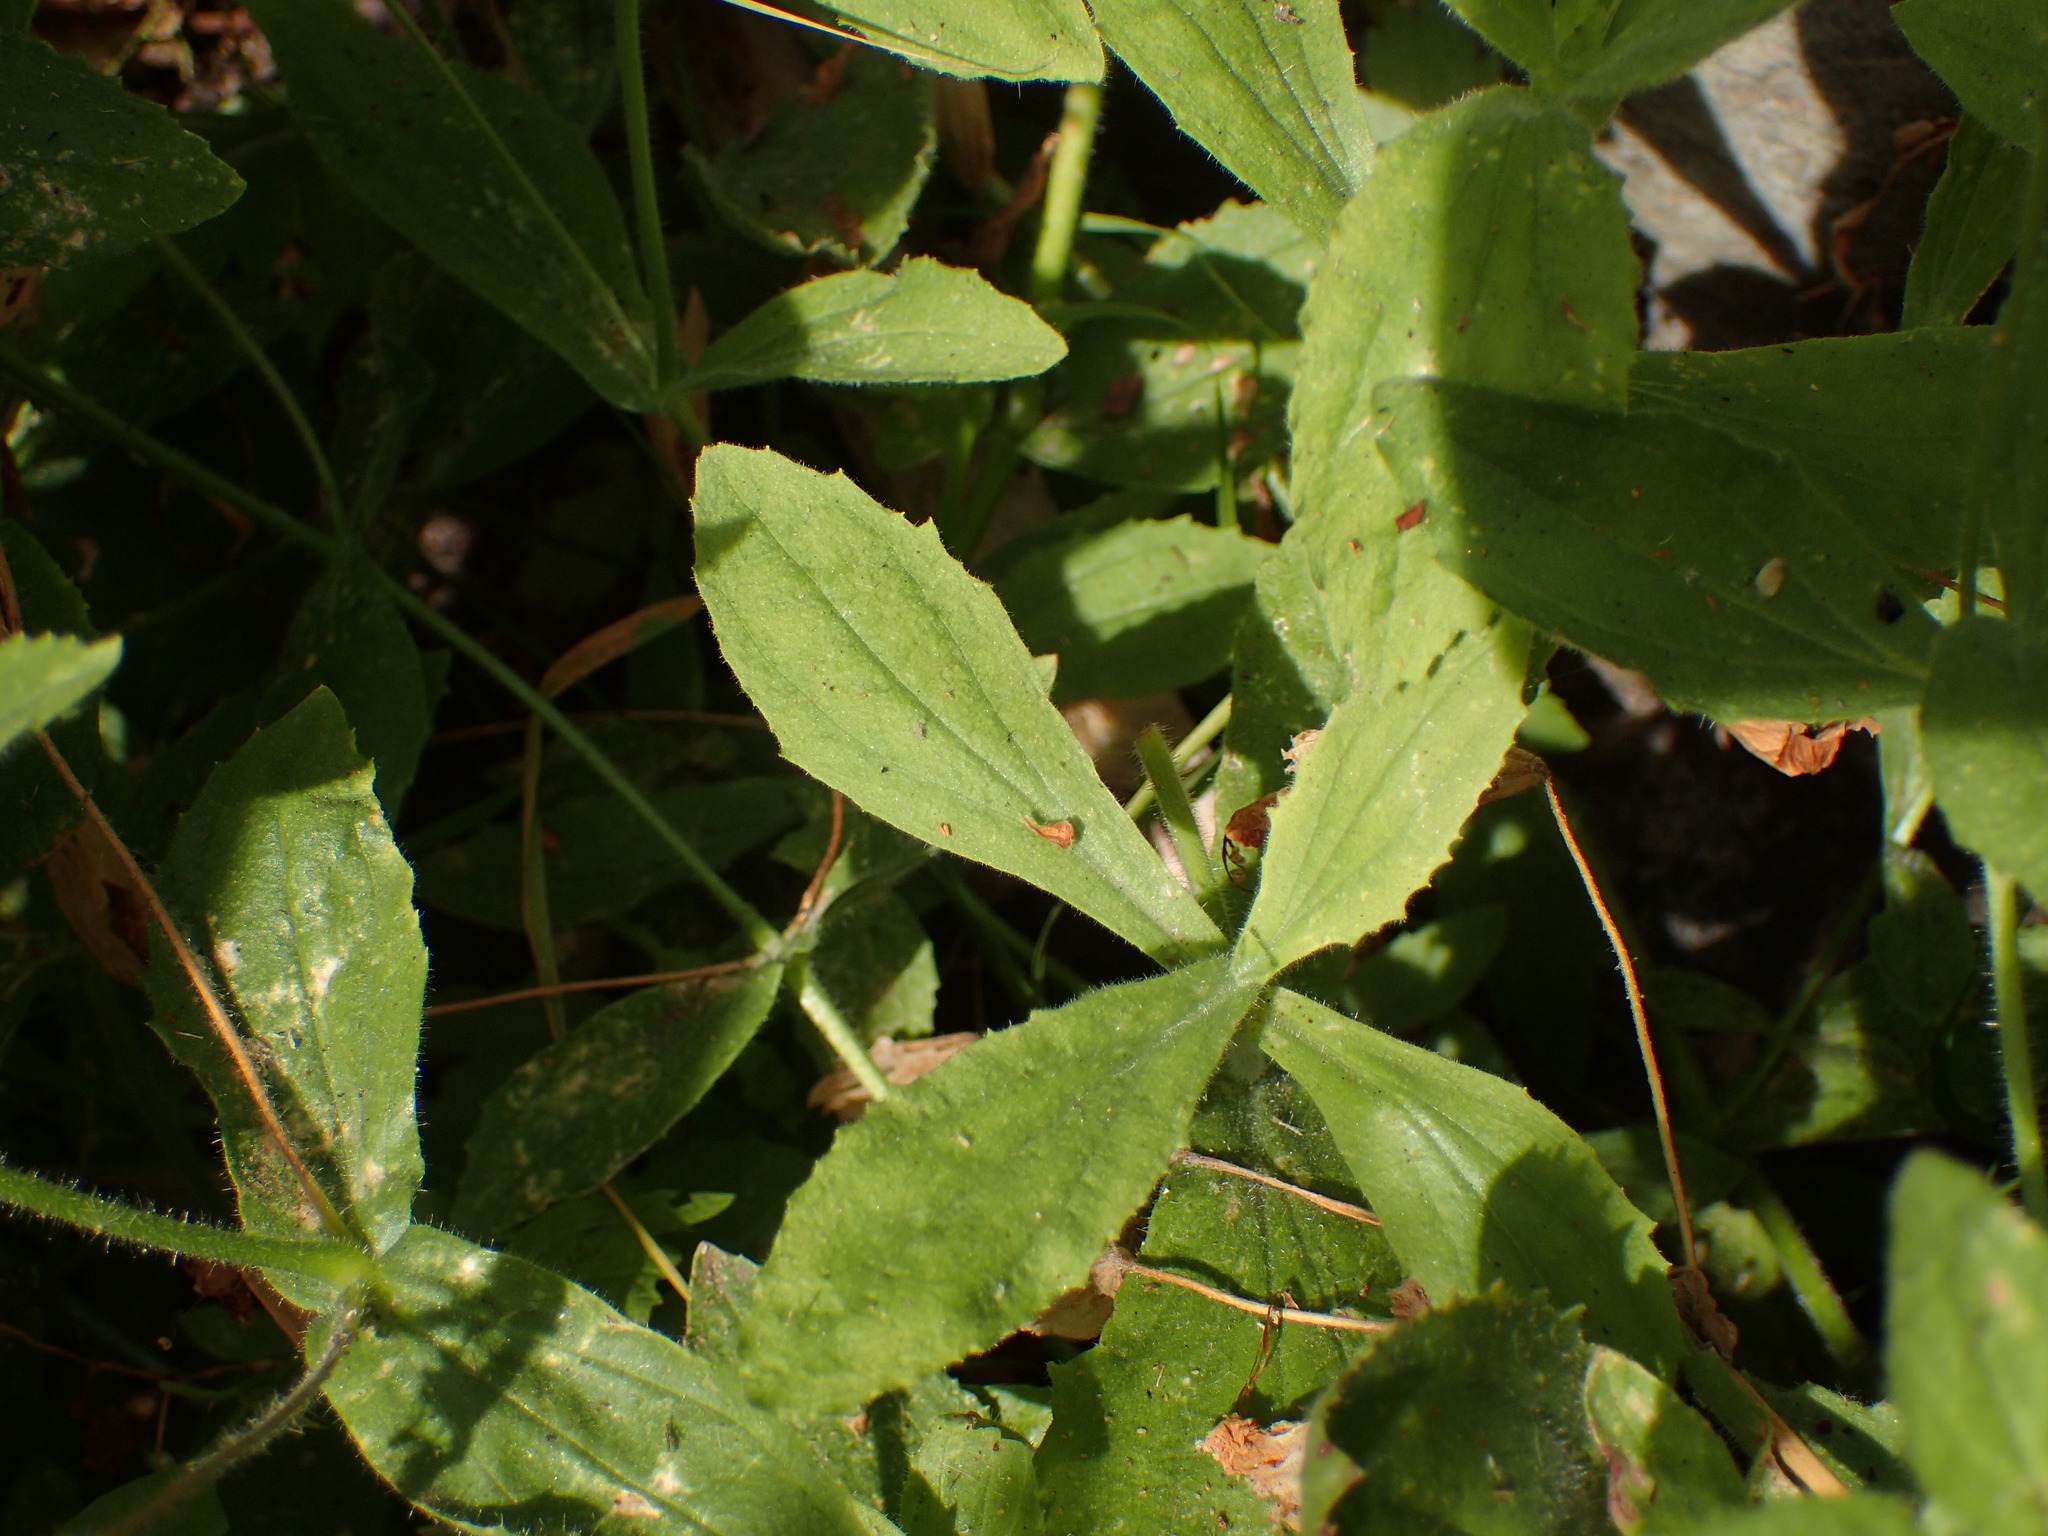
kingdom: Plantae
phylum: Tracheophyta
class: Magnoliopsida
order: Lamiales
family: Phrymaceae
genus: Erythranthe
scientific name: Erythranthe cardinalis
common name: Scarlet monkey-flower
